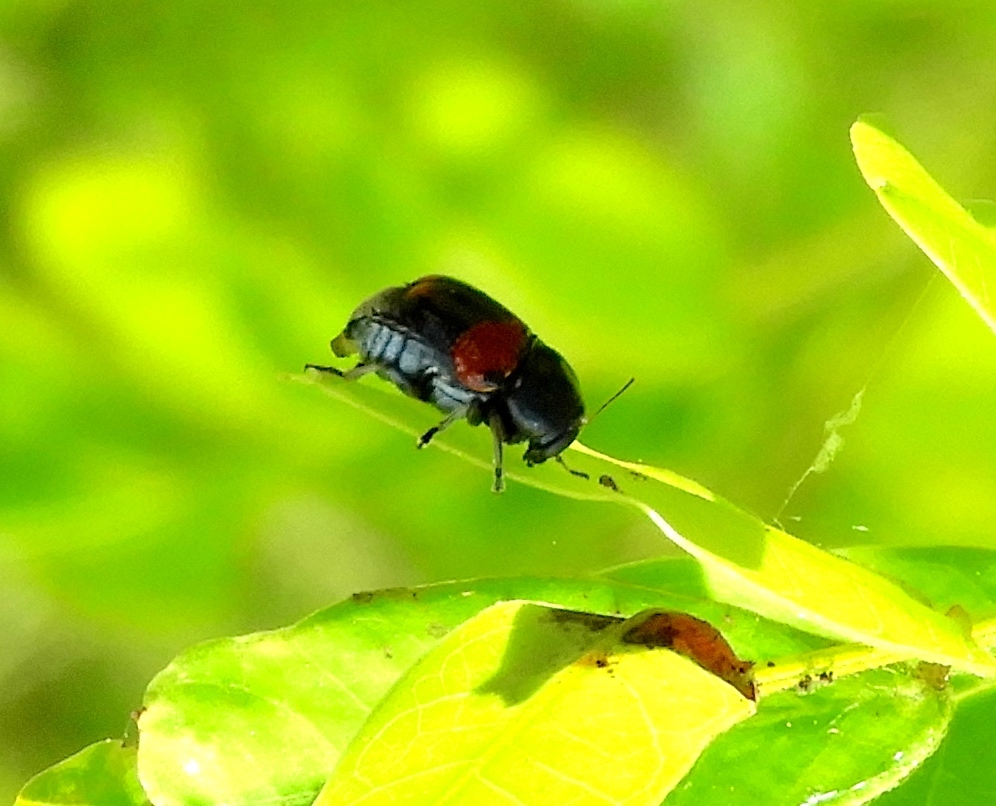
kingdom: Animalia
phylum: Arthropoda
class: Insecta
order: Coleoptera
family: Chrysomelidae
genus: Griburius
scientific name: Griburius
